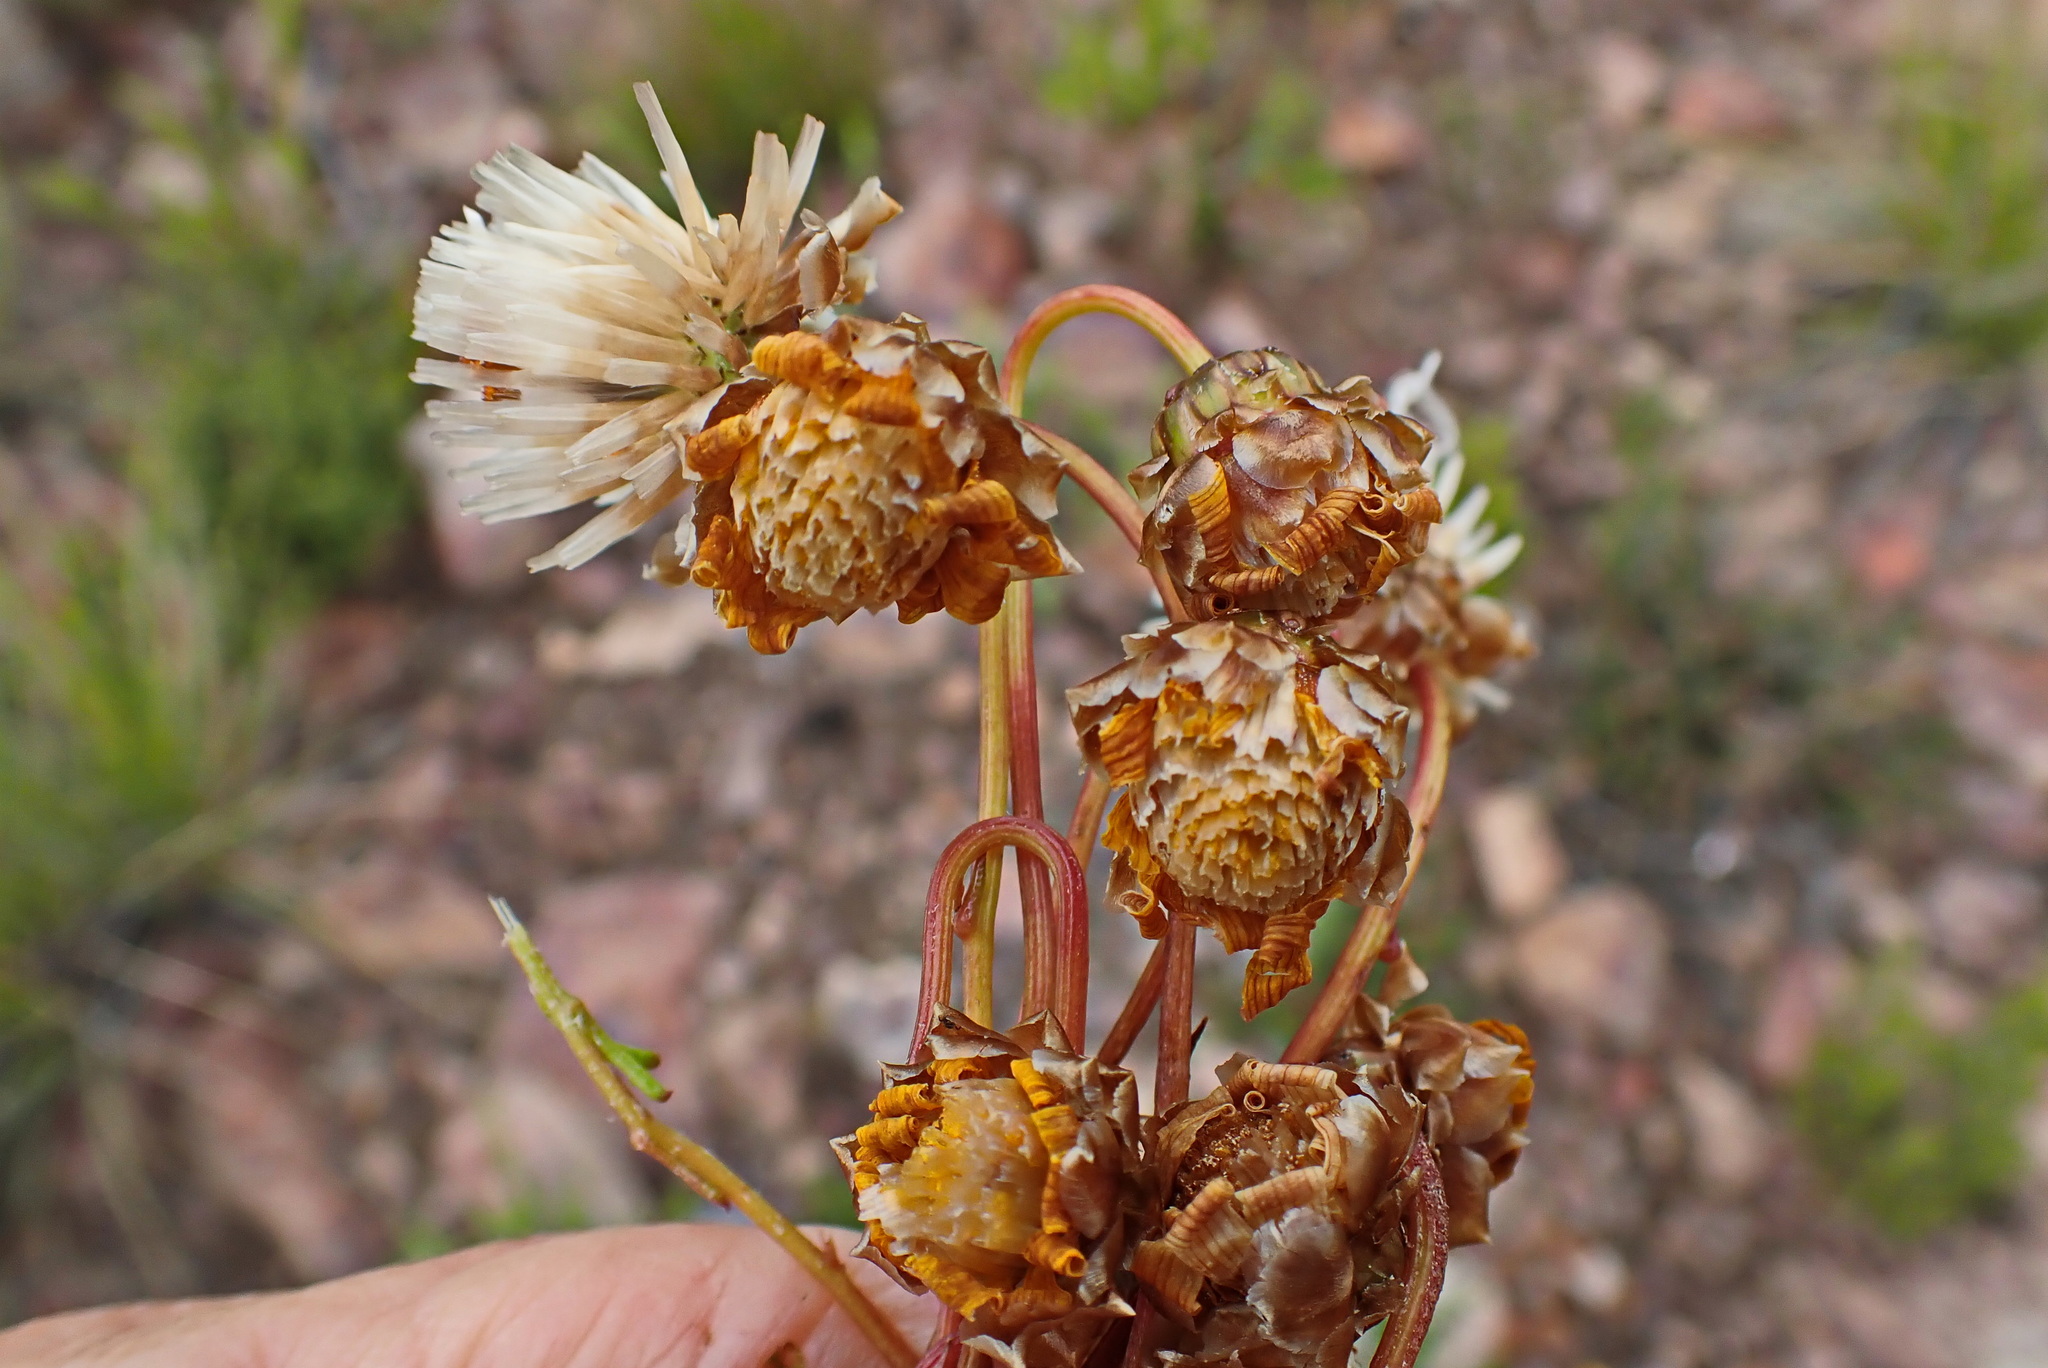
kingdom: Plantae
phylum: Tracheophyta
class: Magnoliopsida
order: Asterales
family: Asteraceae
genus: Ursinia
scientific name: Ursinia anthemoides
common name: Ursinia
